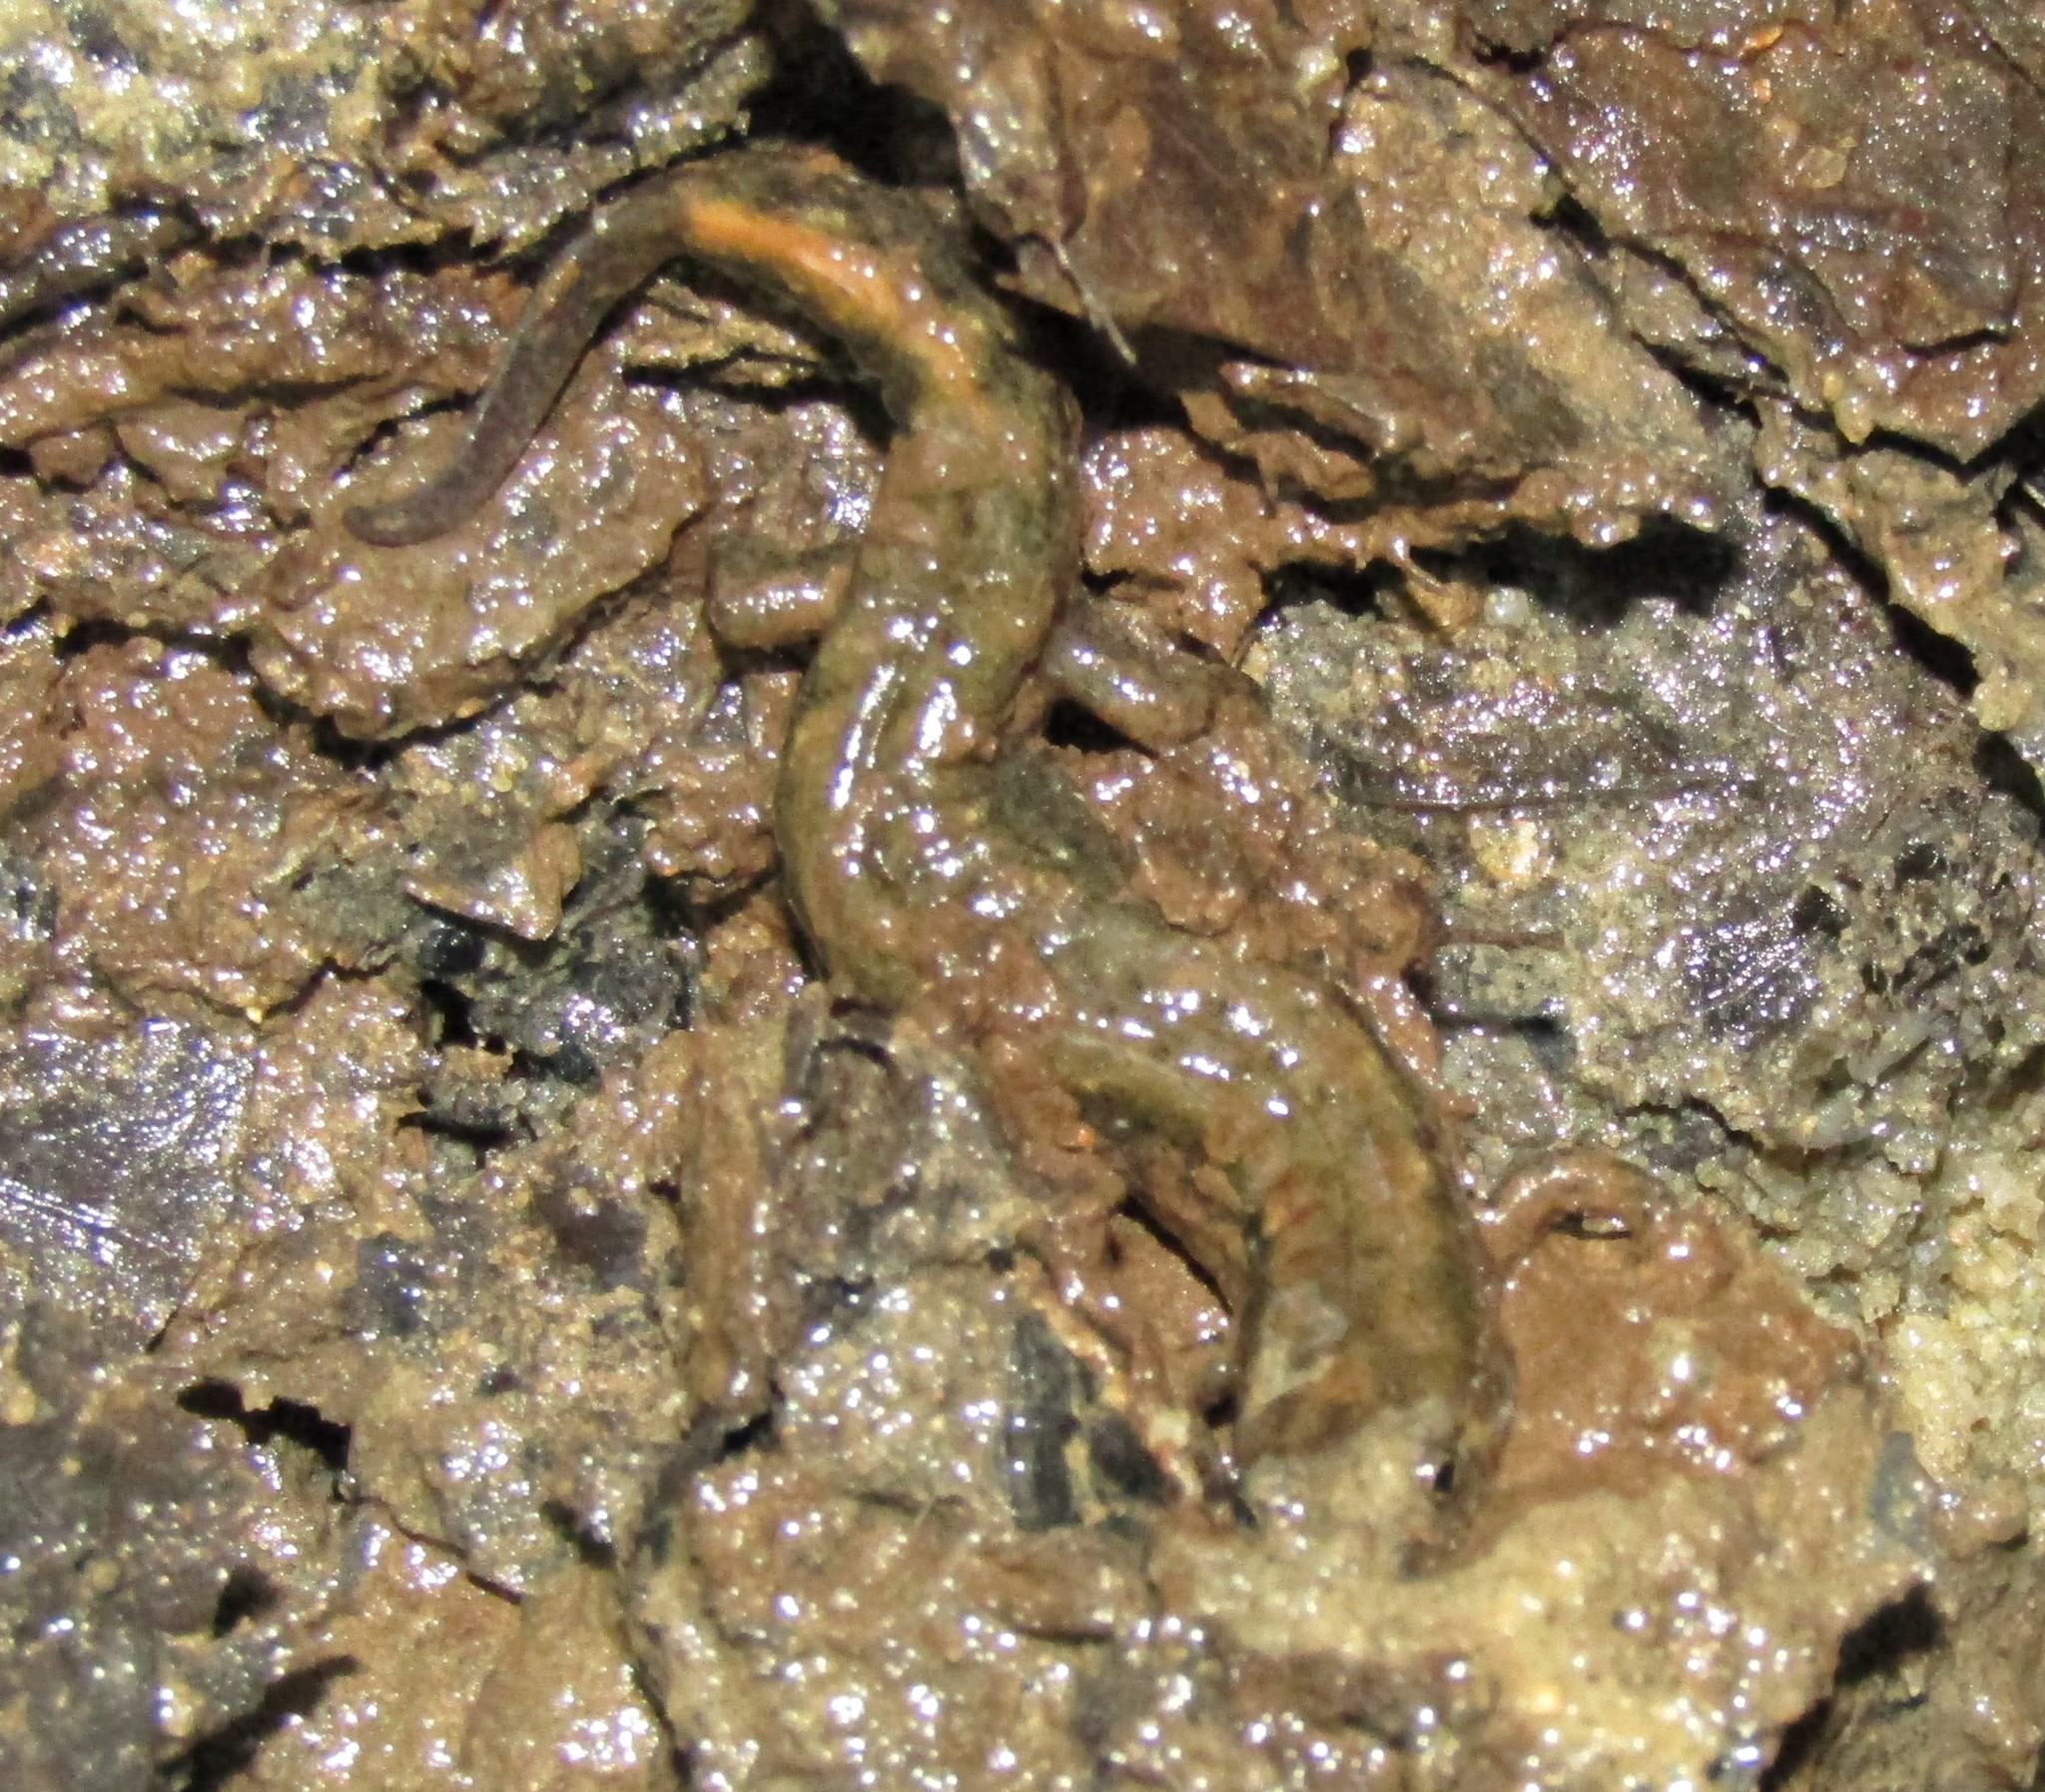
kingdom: Animalia
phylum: Chordata
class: Amphibia
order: Caudata
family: Plethodontidae
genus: Desmognathus
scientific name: Desmognathus
